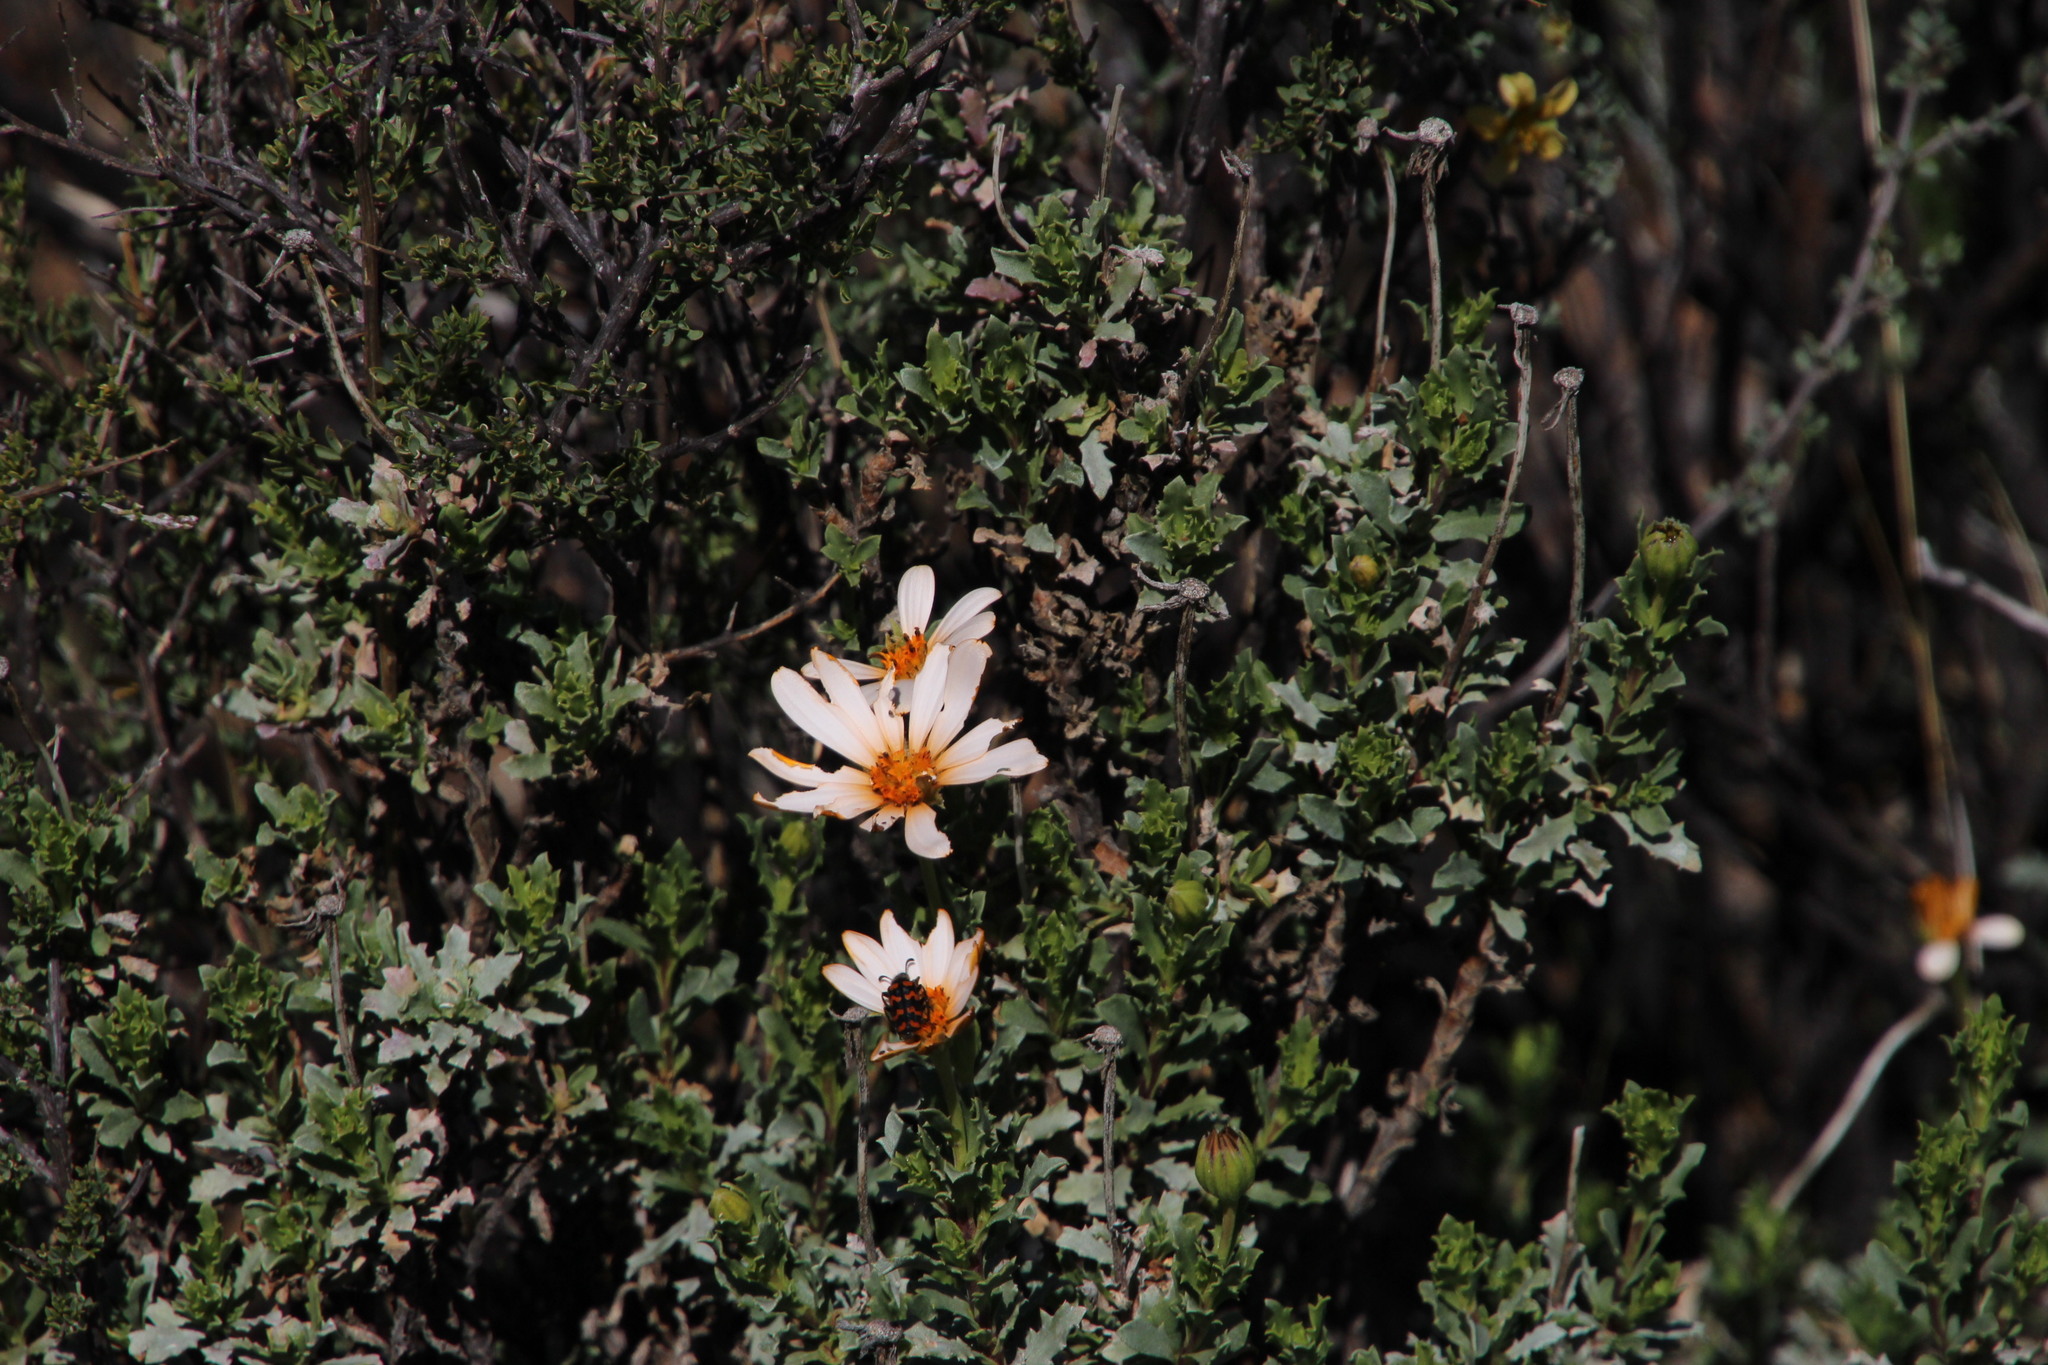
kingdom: Animalia
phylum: Arthropoda
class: Insecta
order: Coleoptera
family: Meloidae
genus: Mimesthes
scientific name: Mimesthes maculicollis
